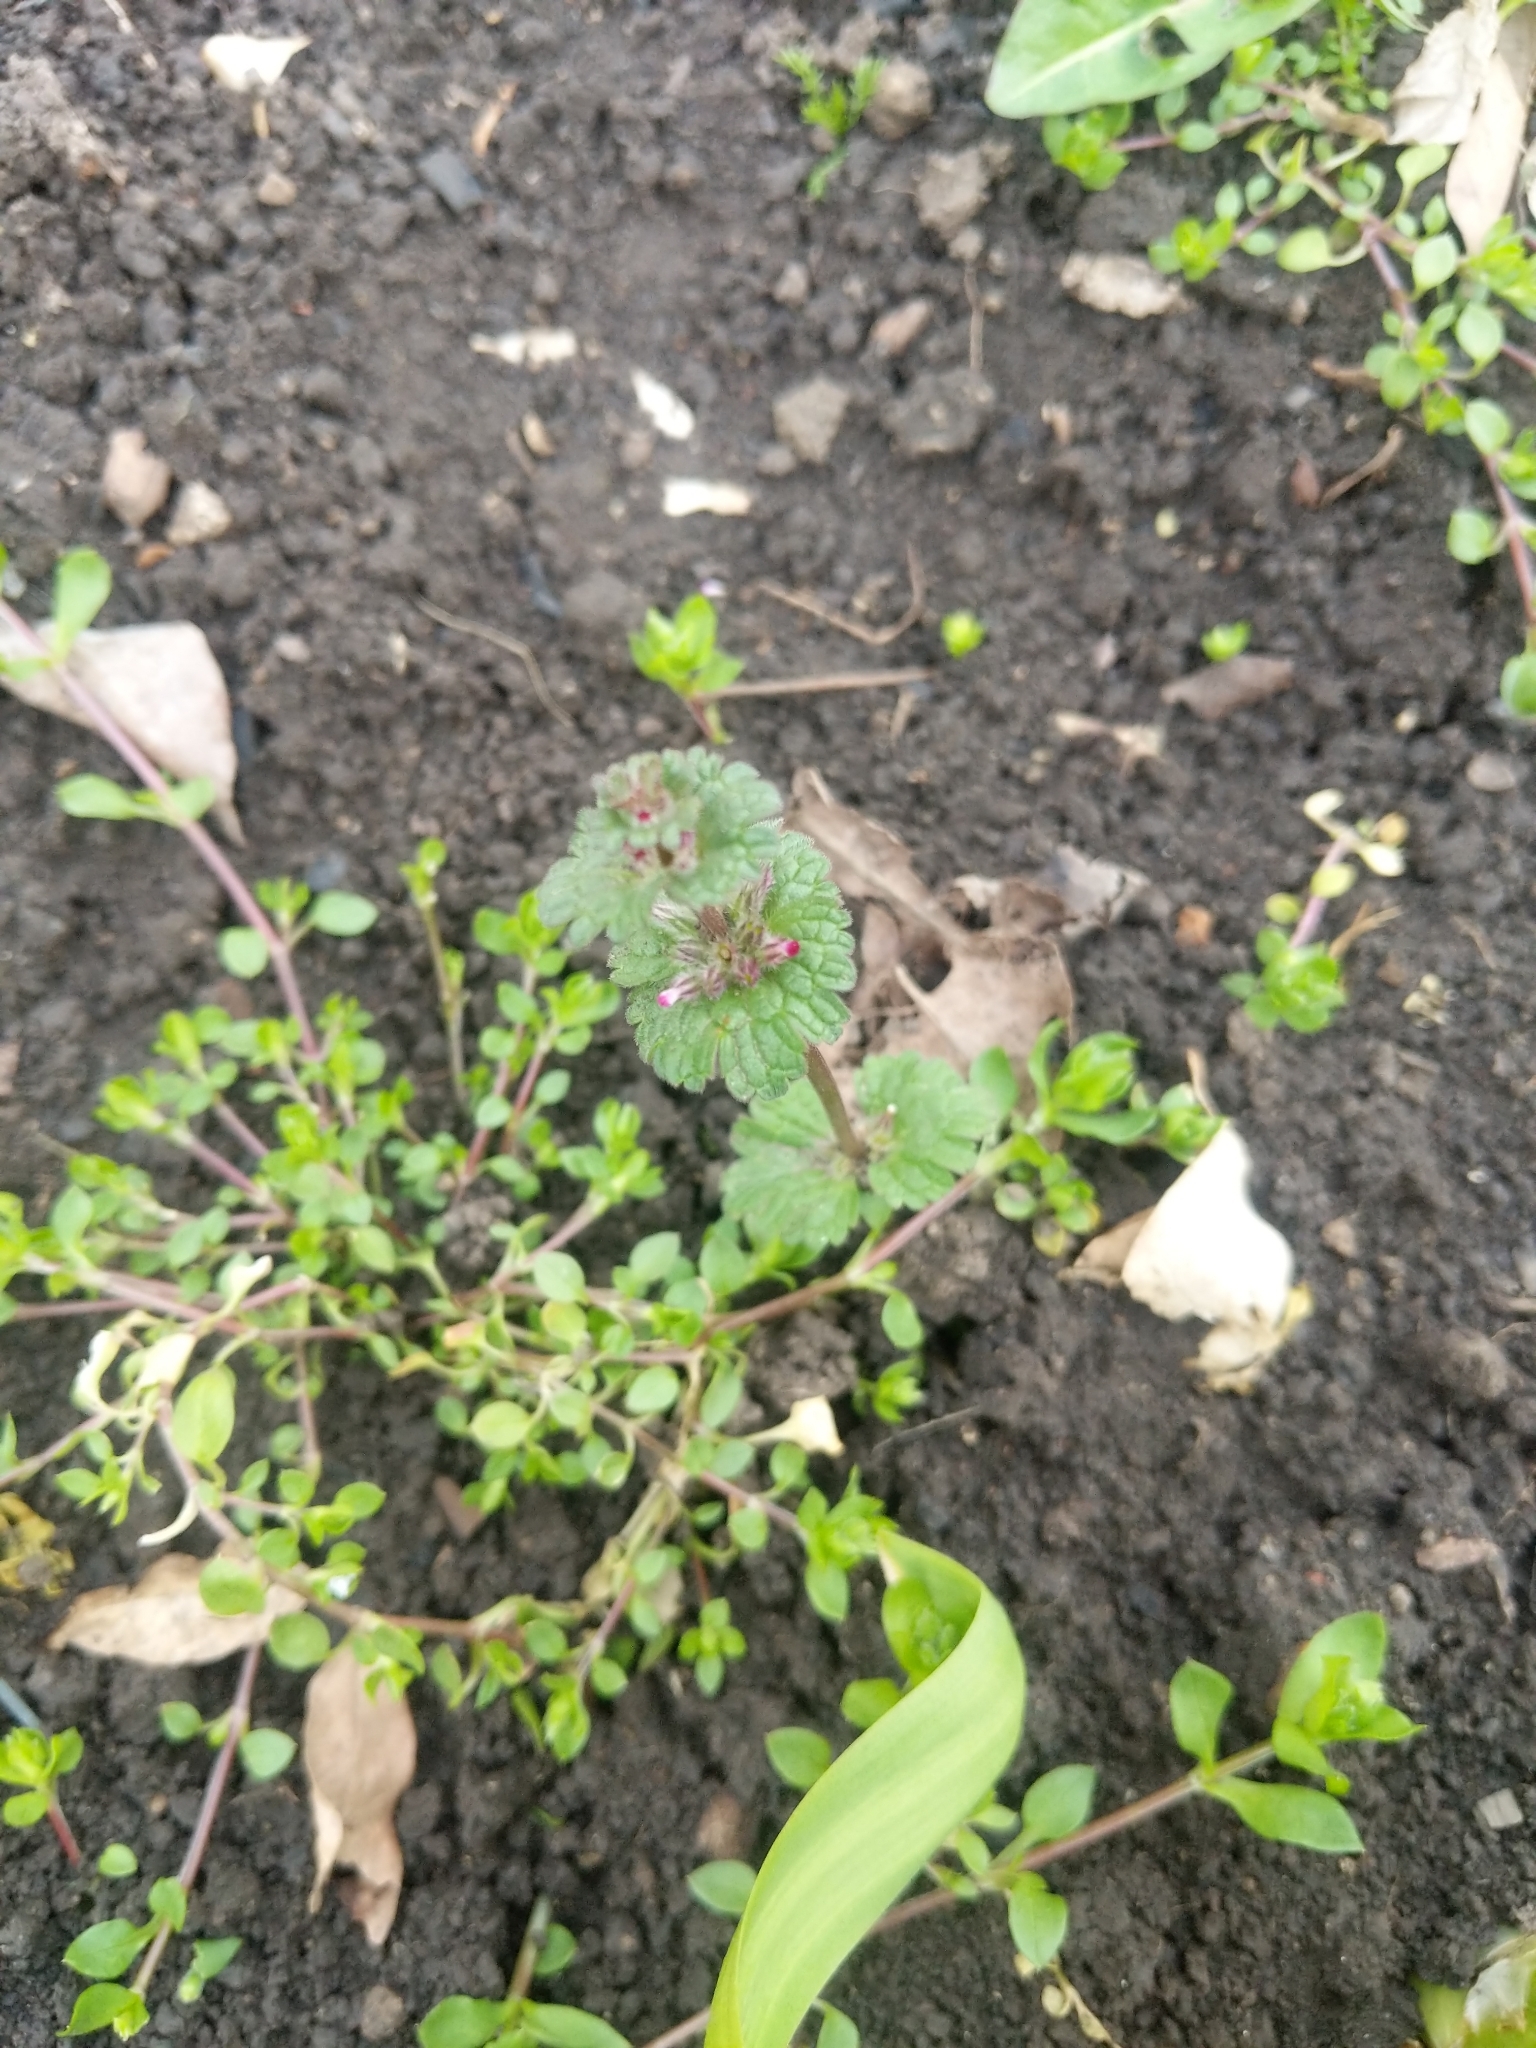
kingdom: Plantae
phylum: Tracheophyta
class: Magnoliopsida
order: Lamiales
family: Lamiaceae
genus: Lamium
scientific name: Lamium amplexicaule
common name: Henbit dead-nettle
